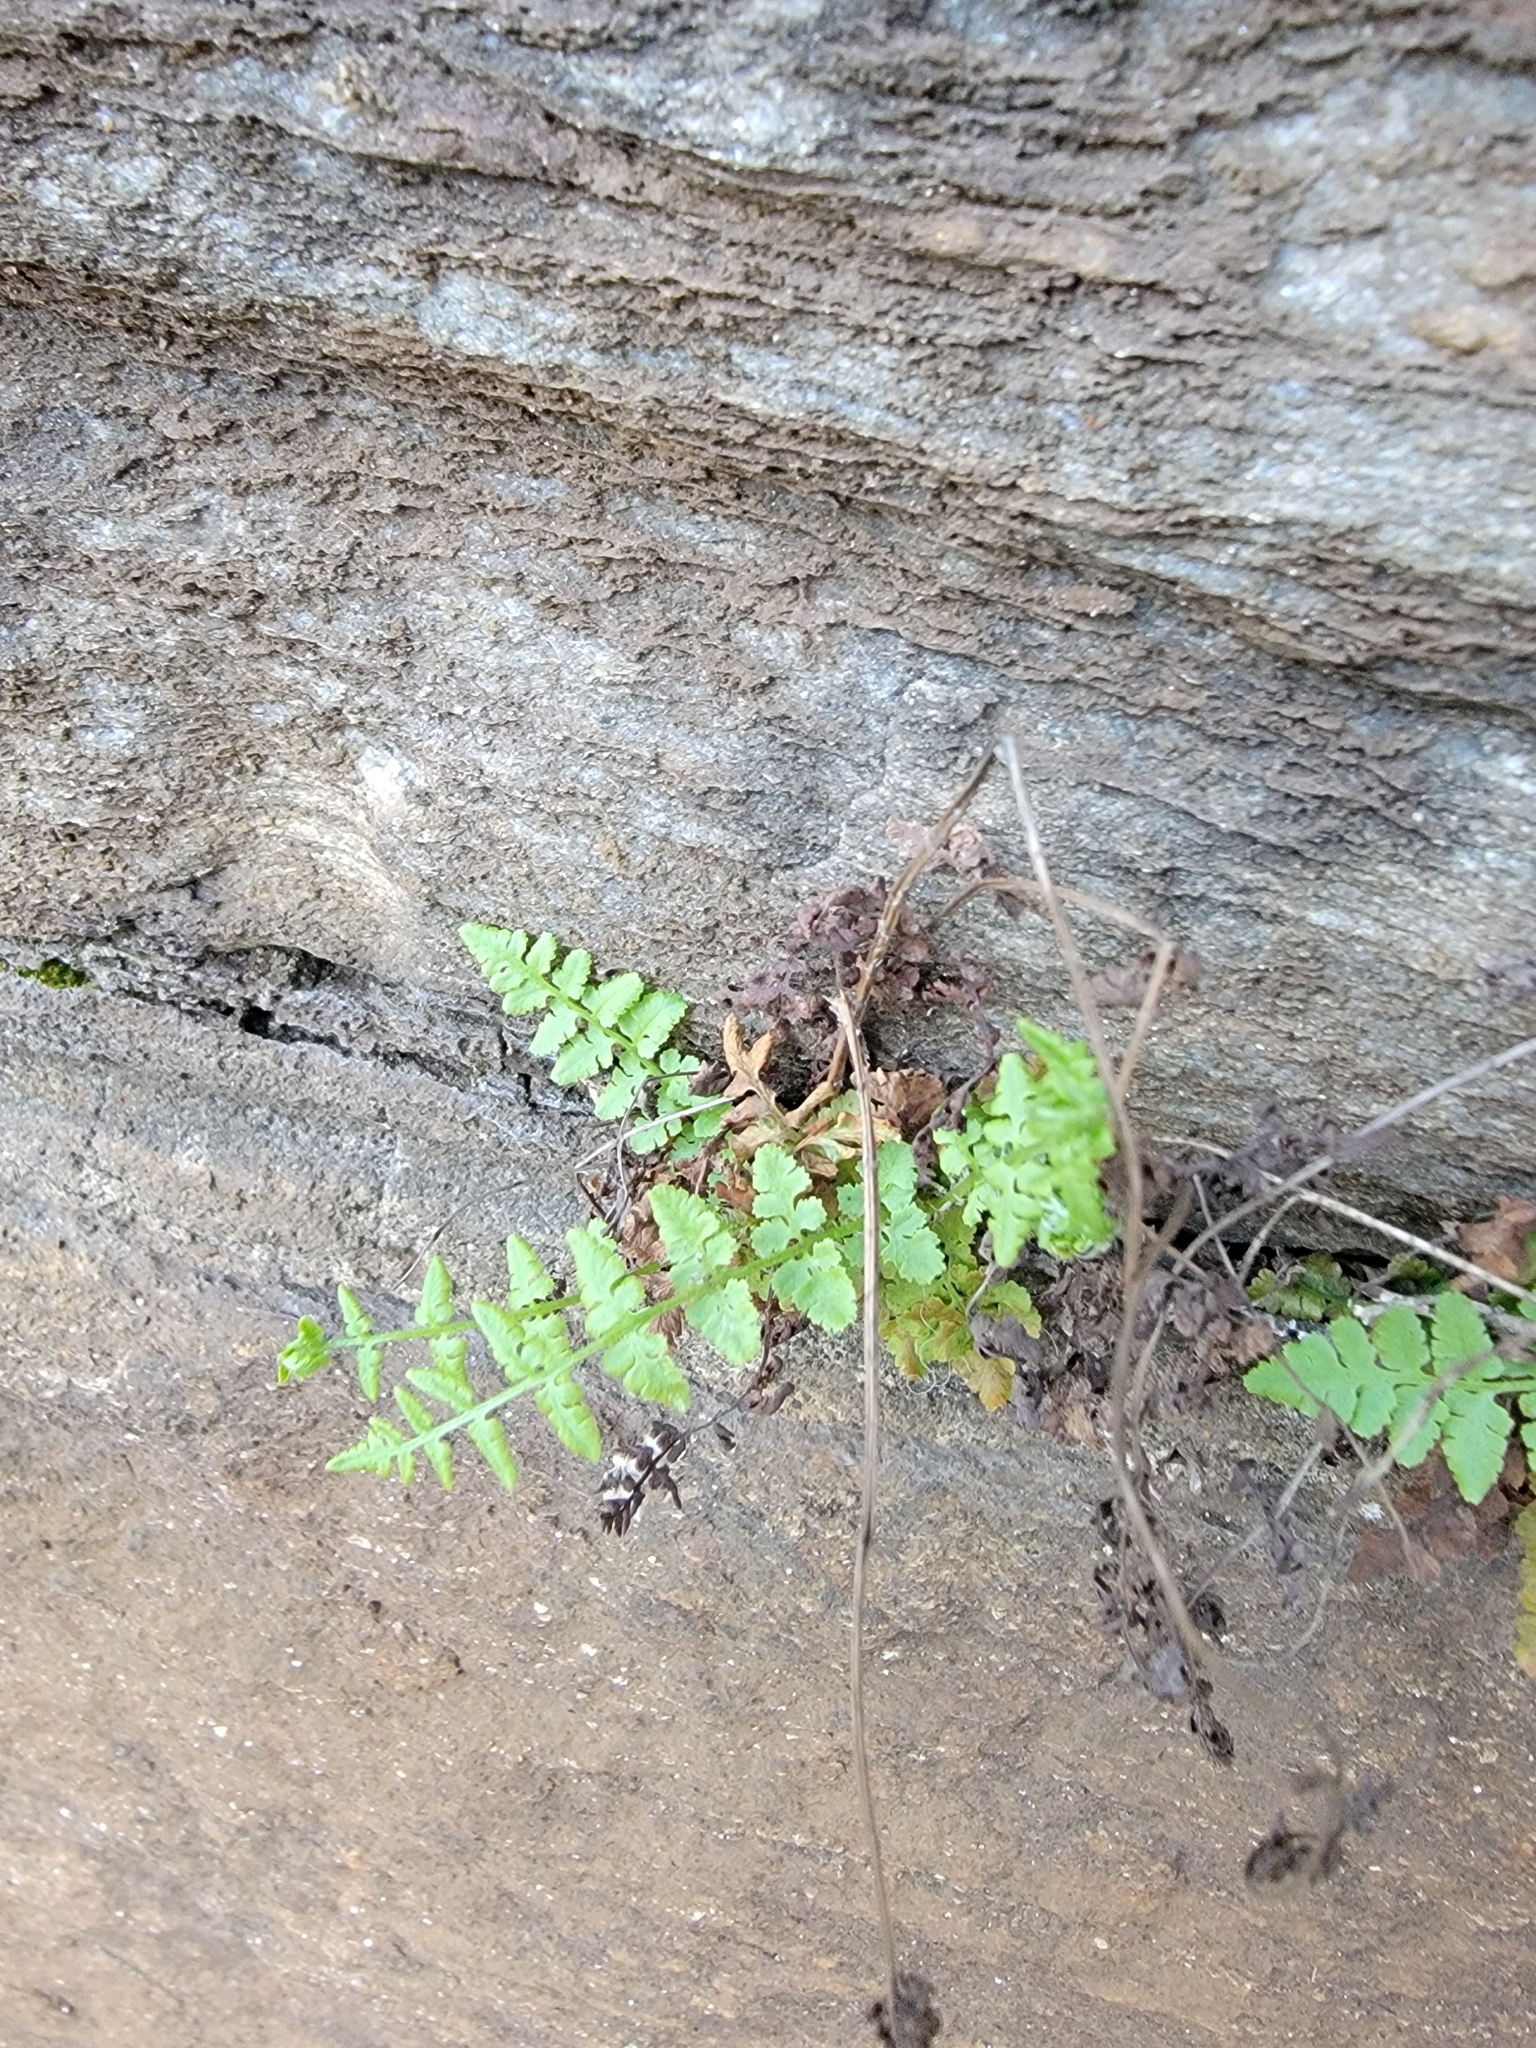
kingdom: Plantae
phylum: Tracheophyta
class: Polypodiopsida
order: Polypodiales
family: Woodsiaceae
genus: Physematium
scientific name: Physematium obtusum
